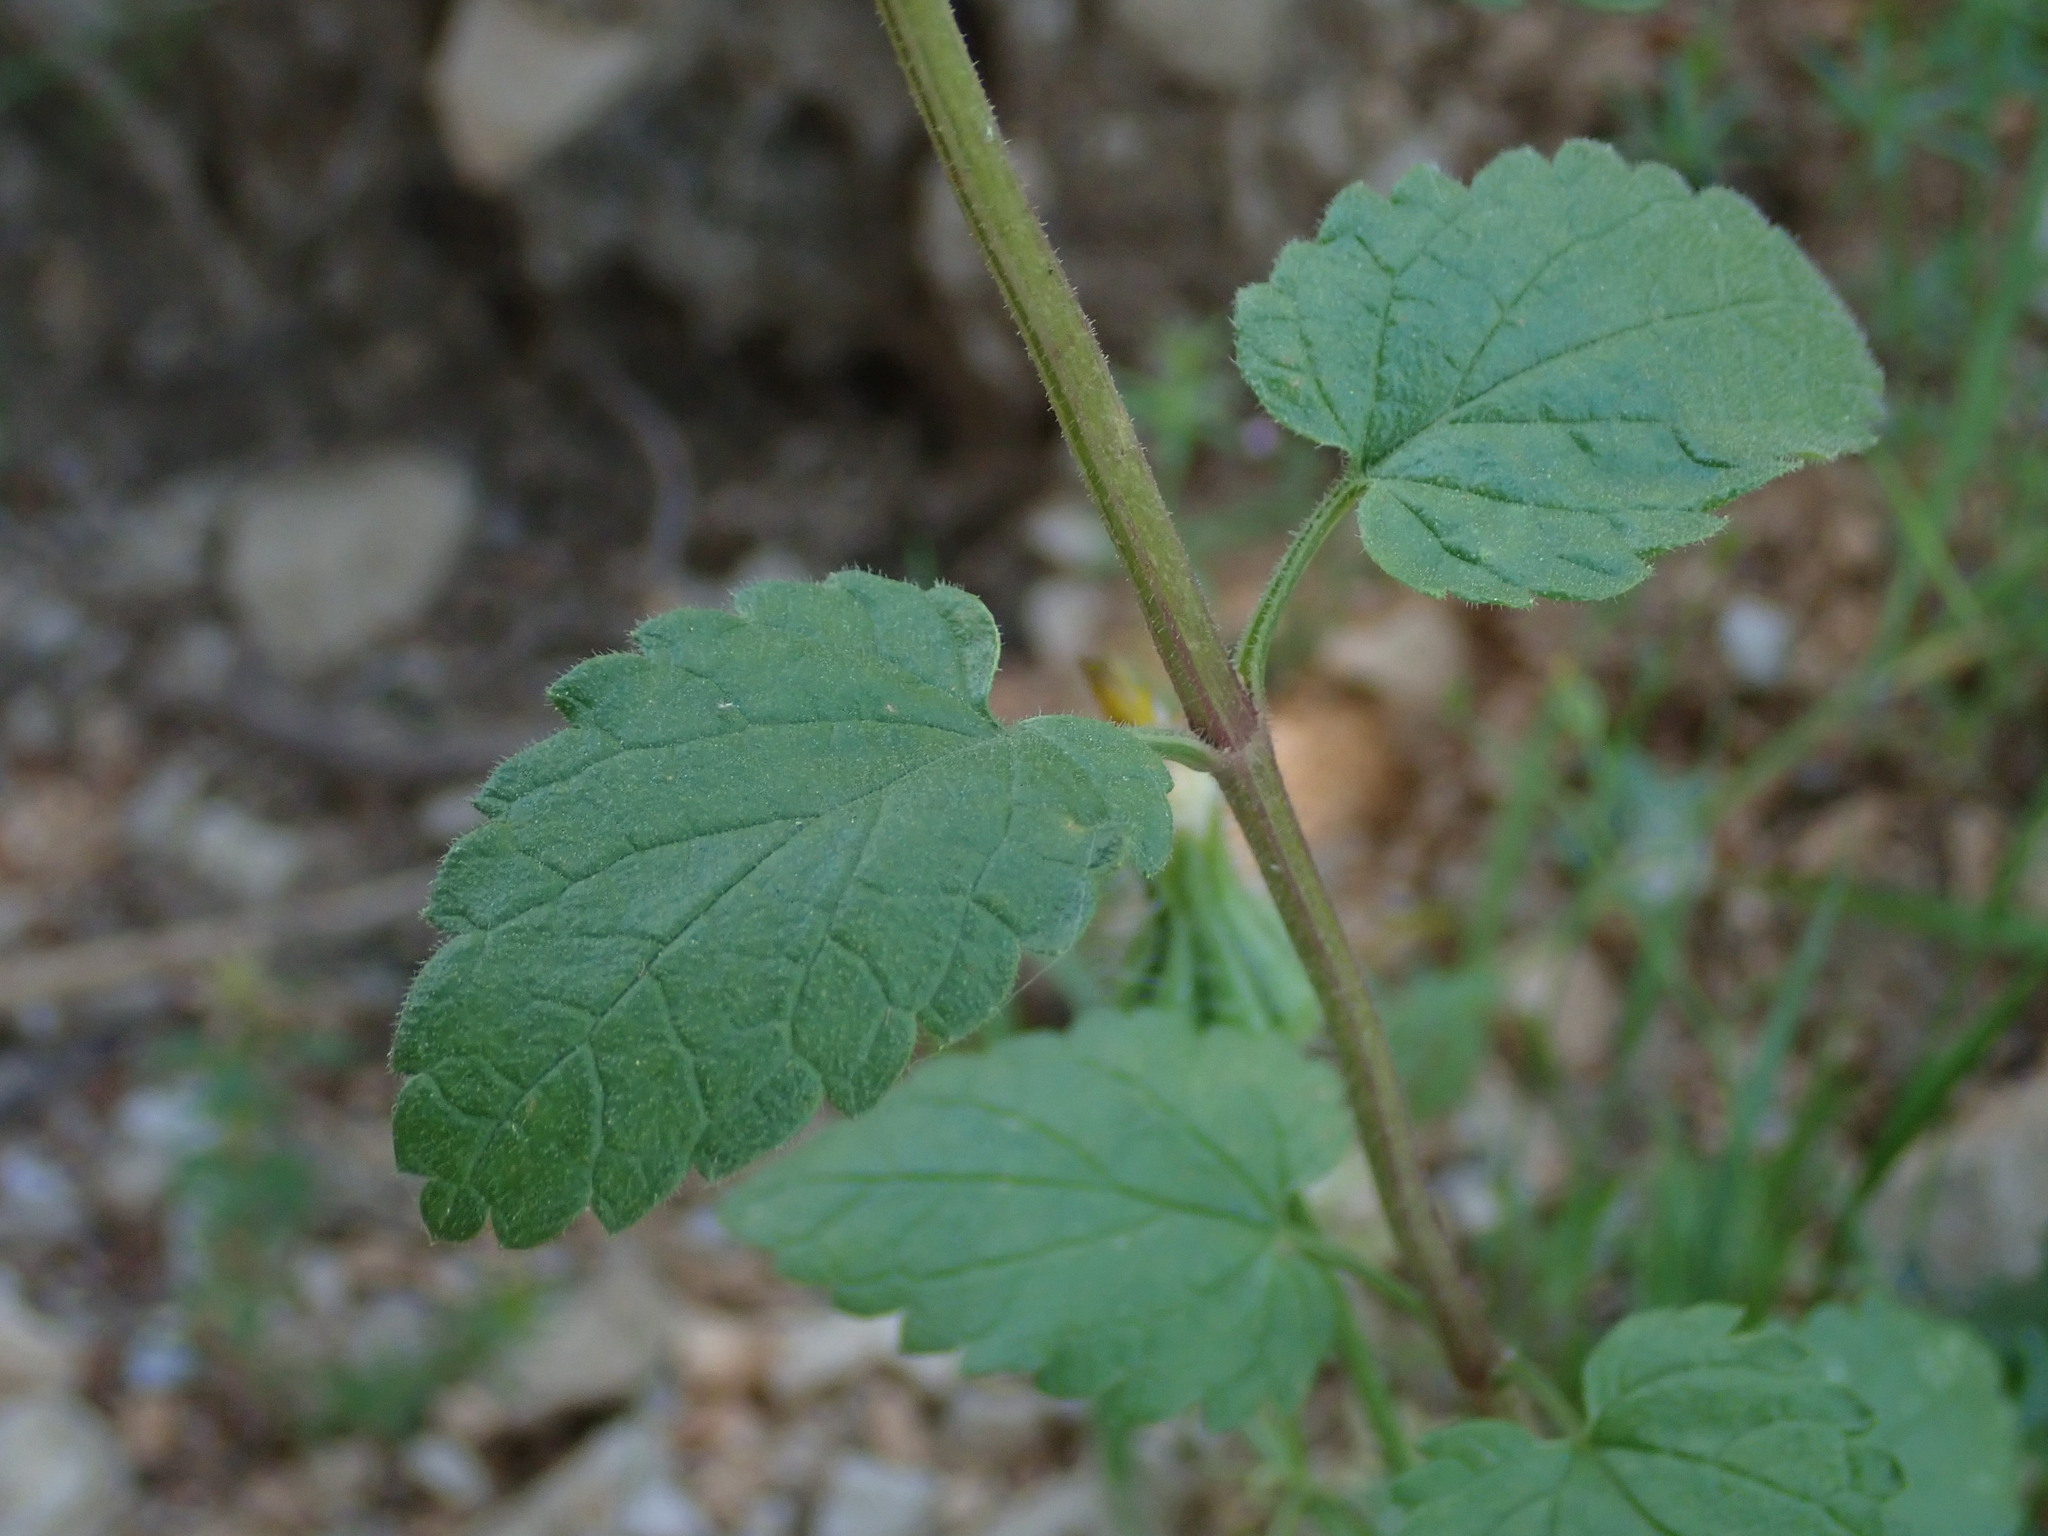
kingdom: Plantae
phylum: Tracheophyta
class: Magnoliopsida
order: Lamiales
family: Lamiaceae
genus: Prasium
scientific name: Prasium majus
